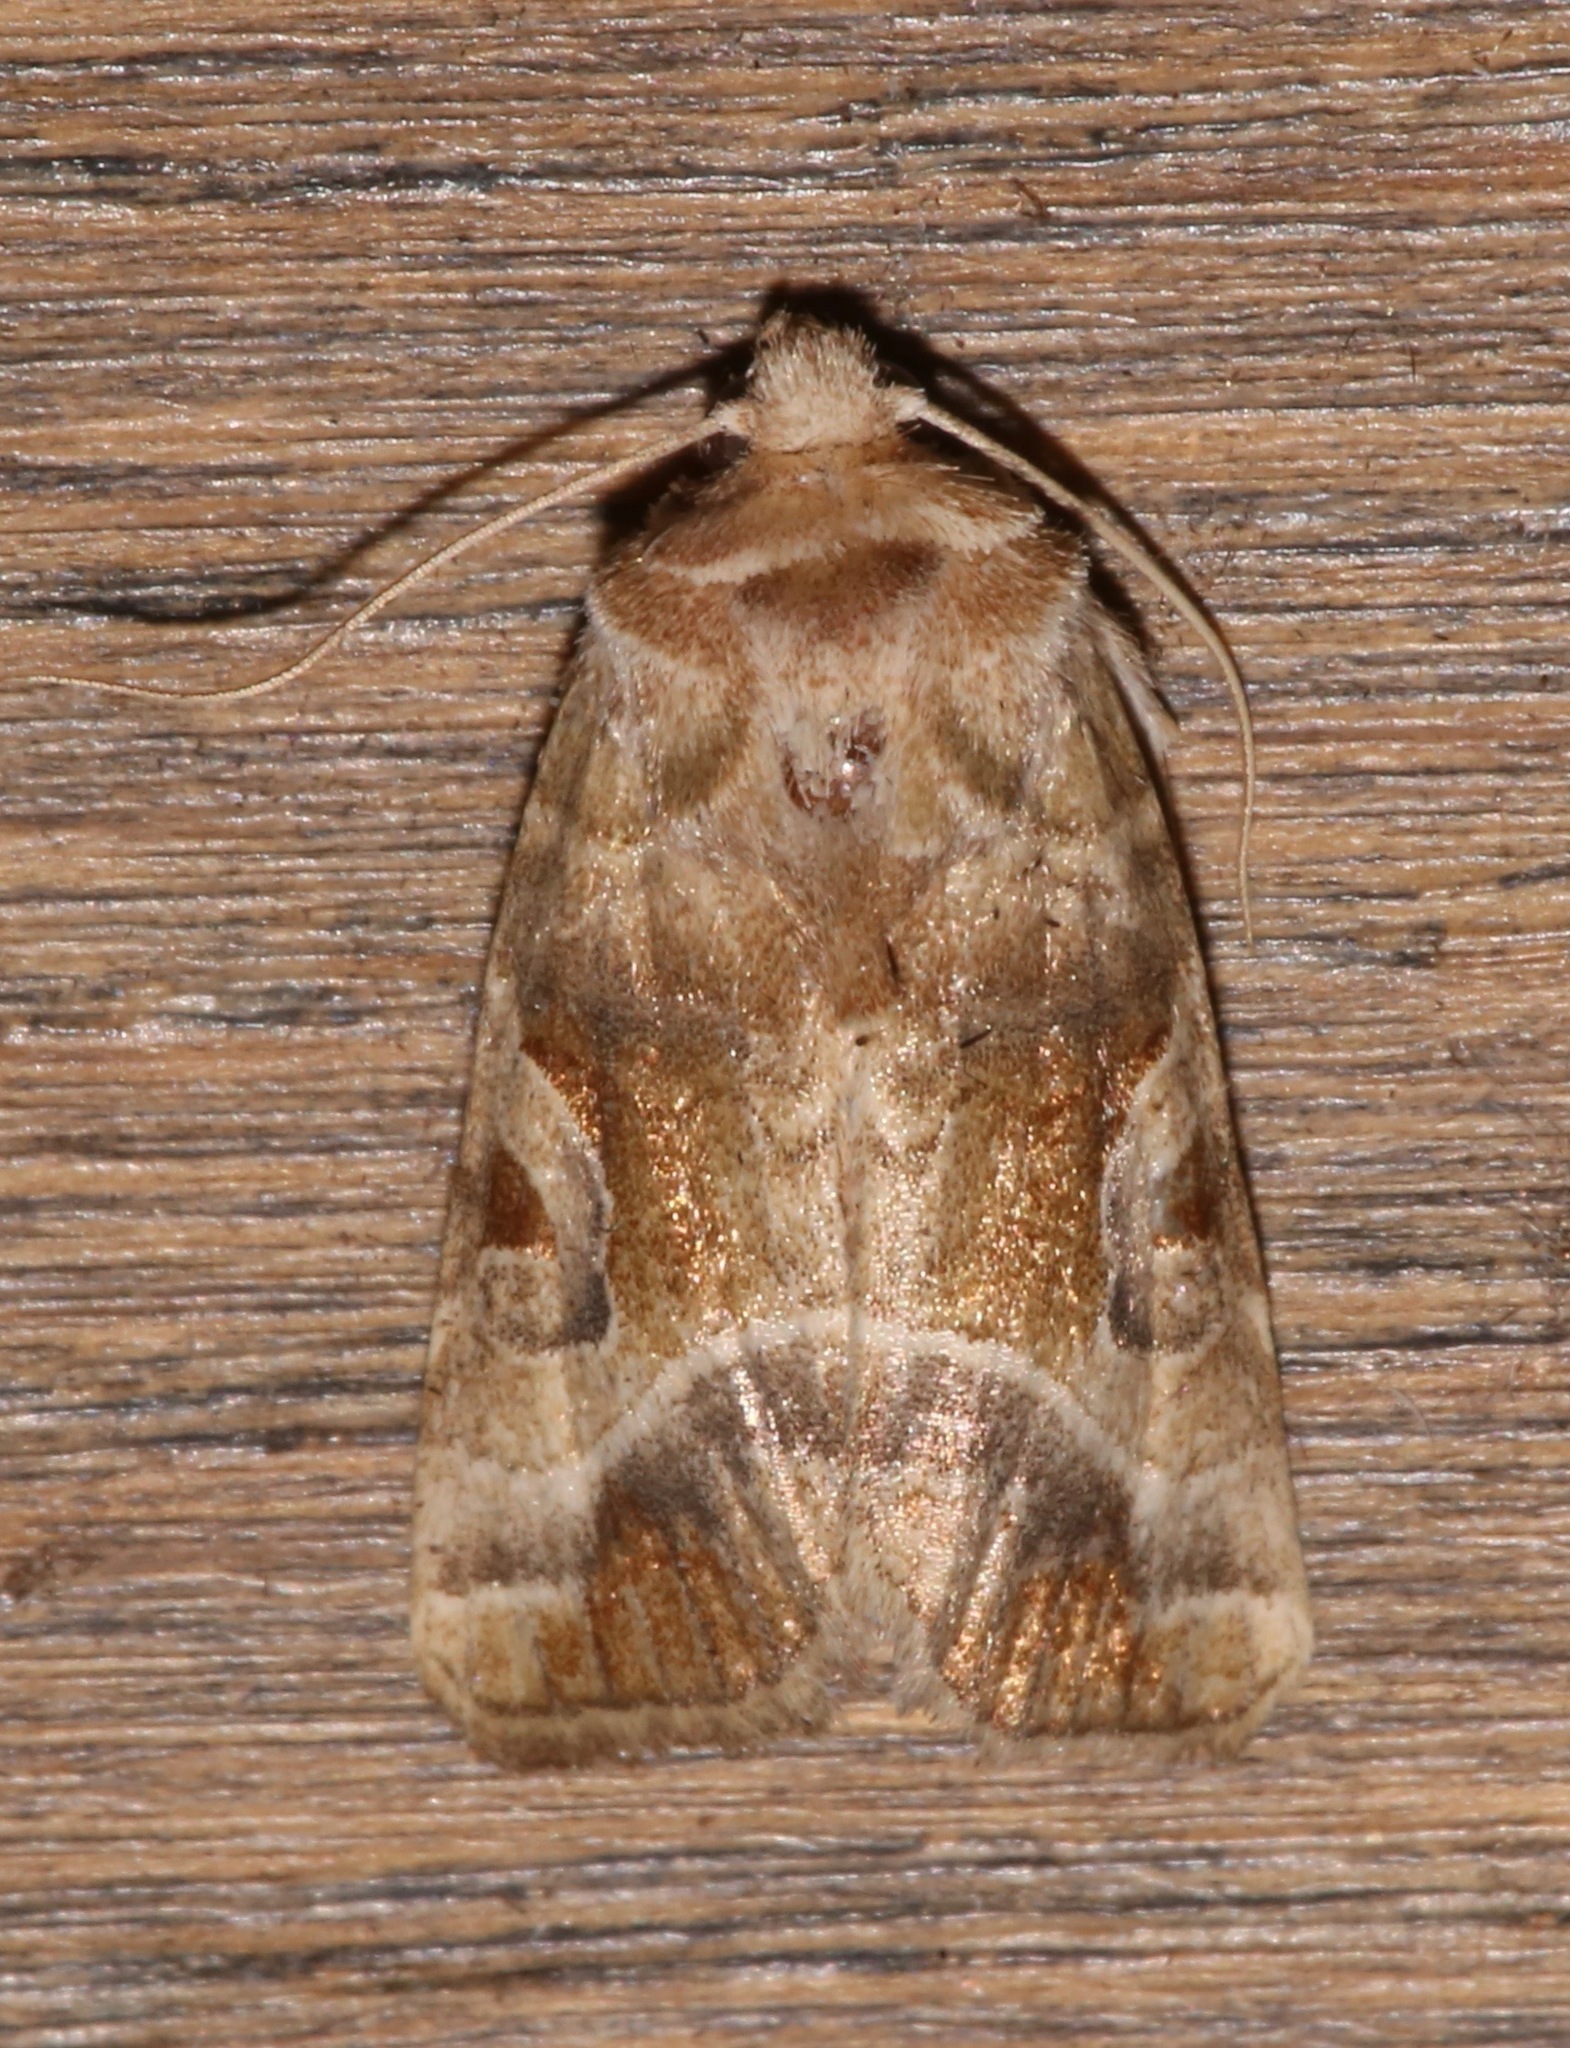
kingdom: Animalia
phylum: Arthropoda
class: Insecta
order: Lepidoptera
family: Noctuidae
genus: Hexorthodes
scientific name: Hexorthodes accurata
